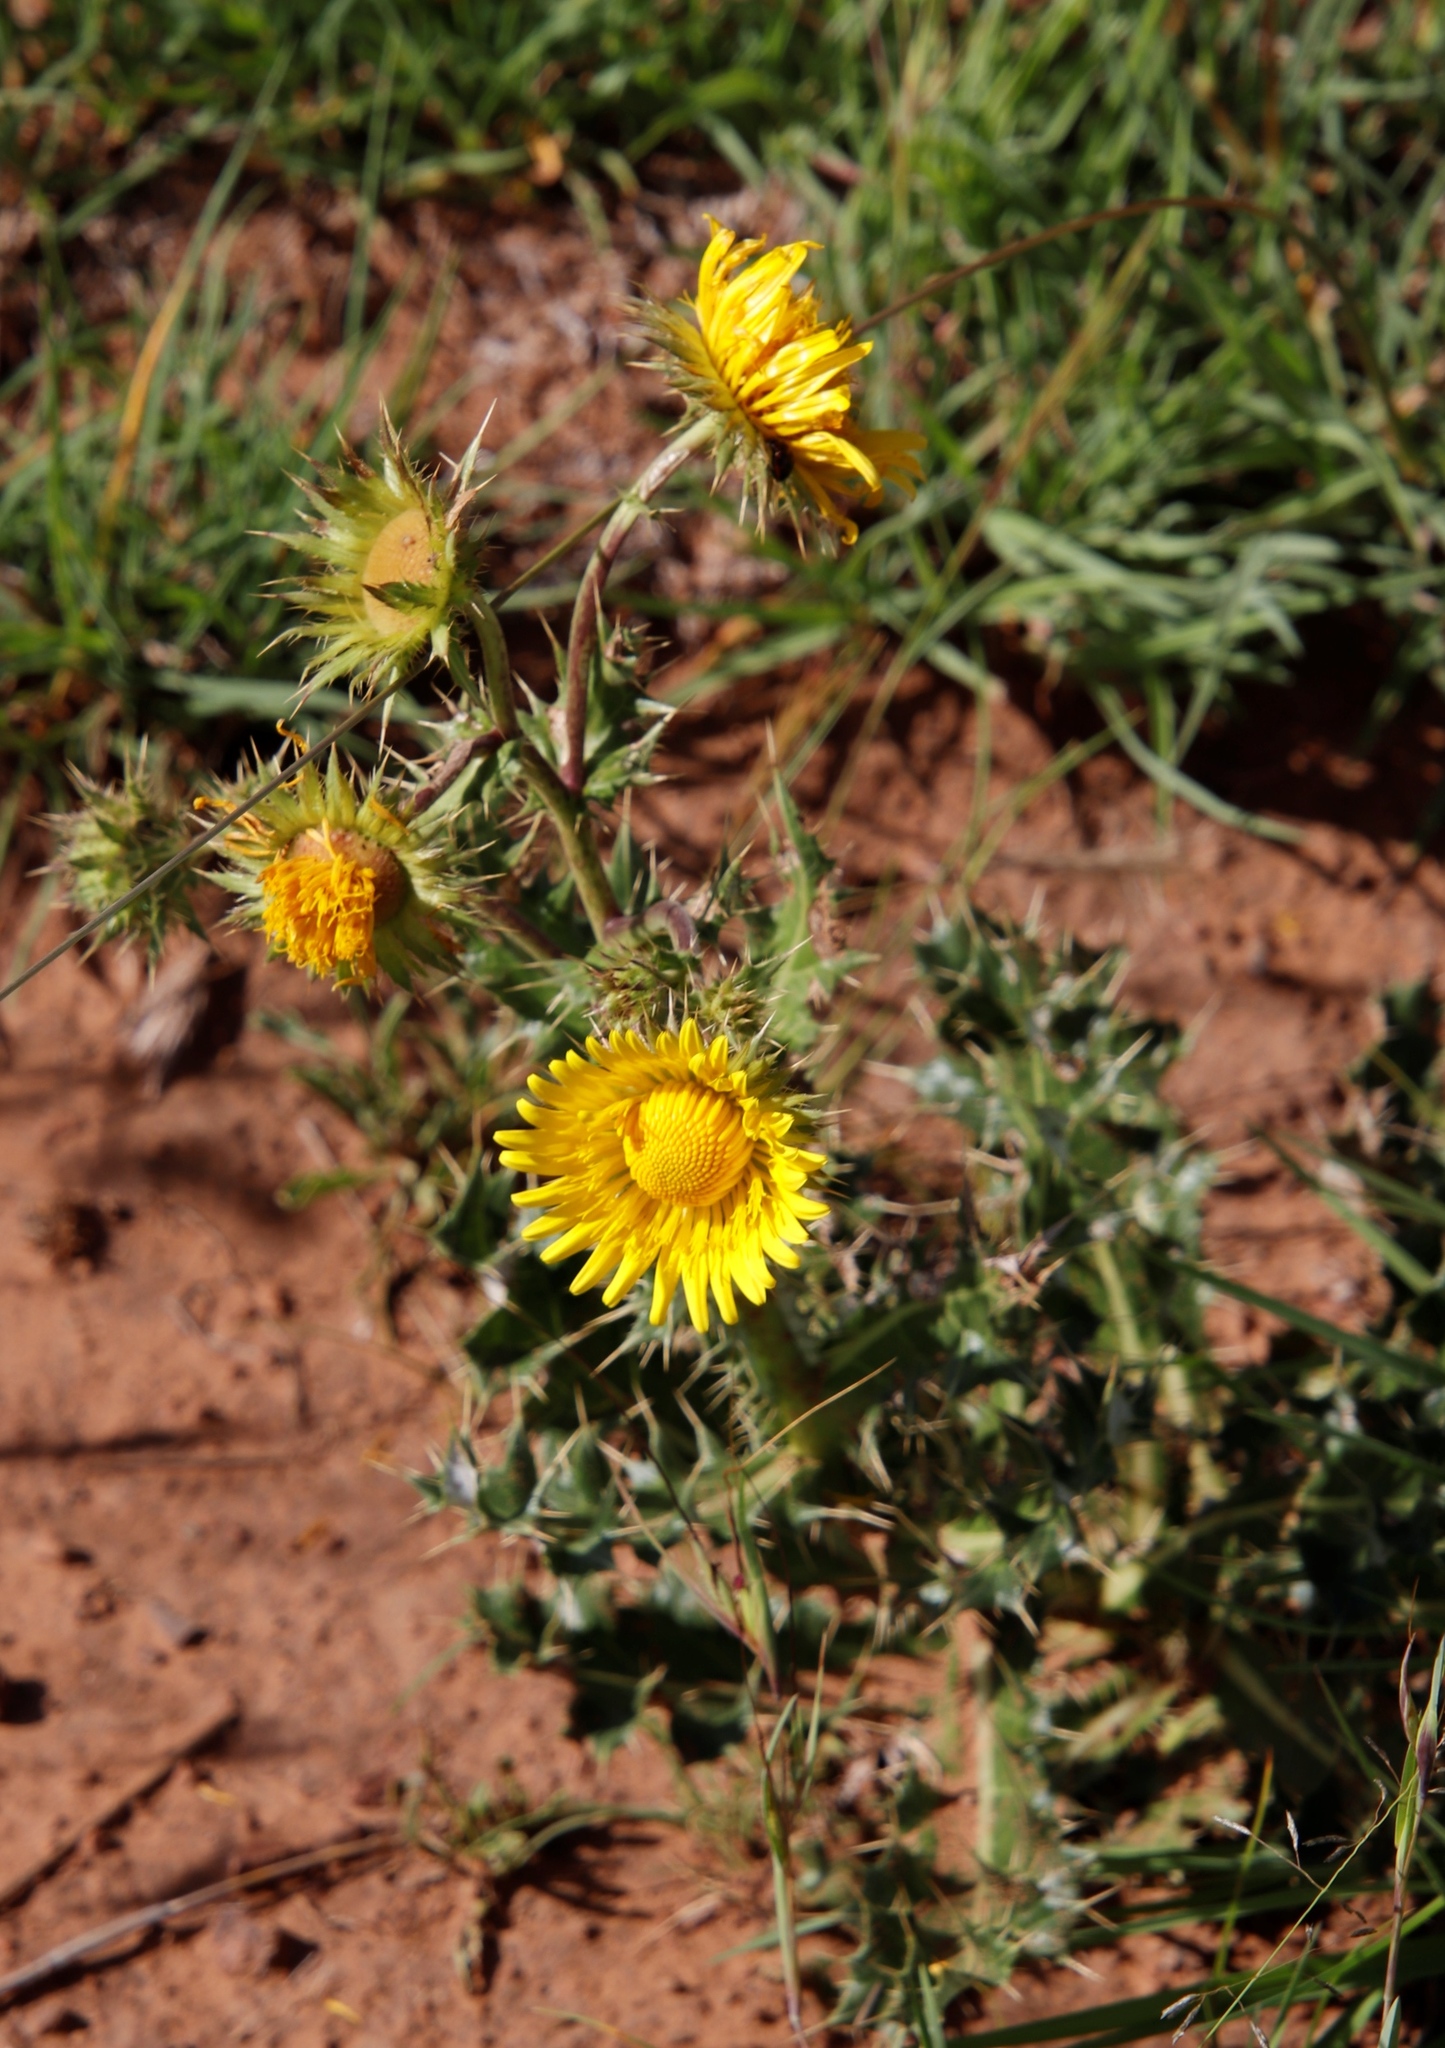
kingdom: Plantae
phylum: Tracheophyta
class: Magnoliopsida
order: Asterales
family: Asteraceae
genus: Berkheya
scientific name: Berkheya discolor
